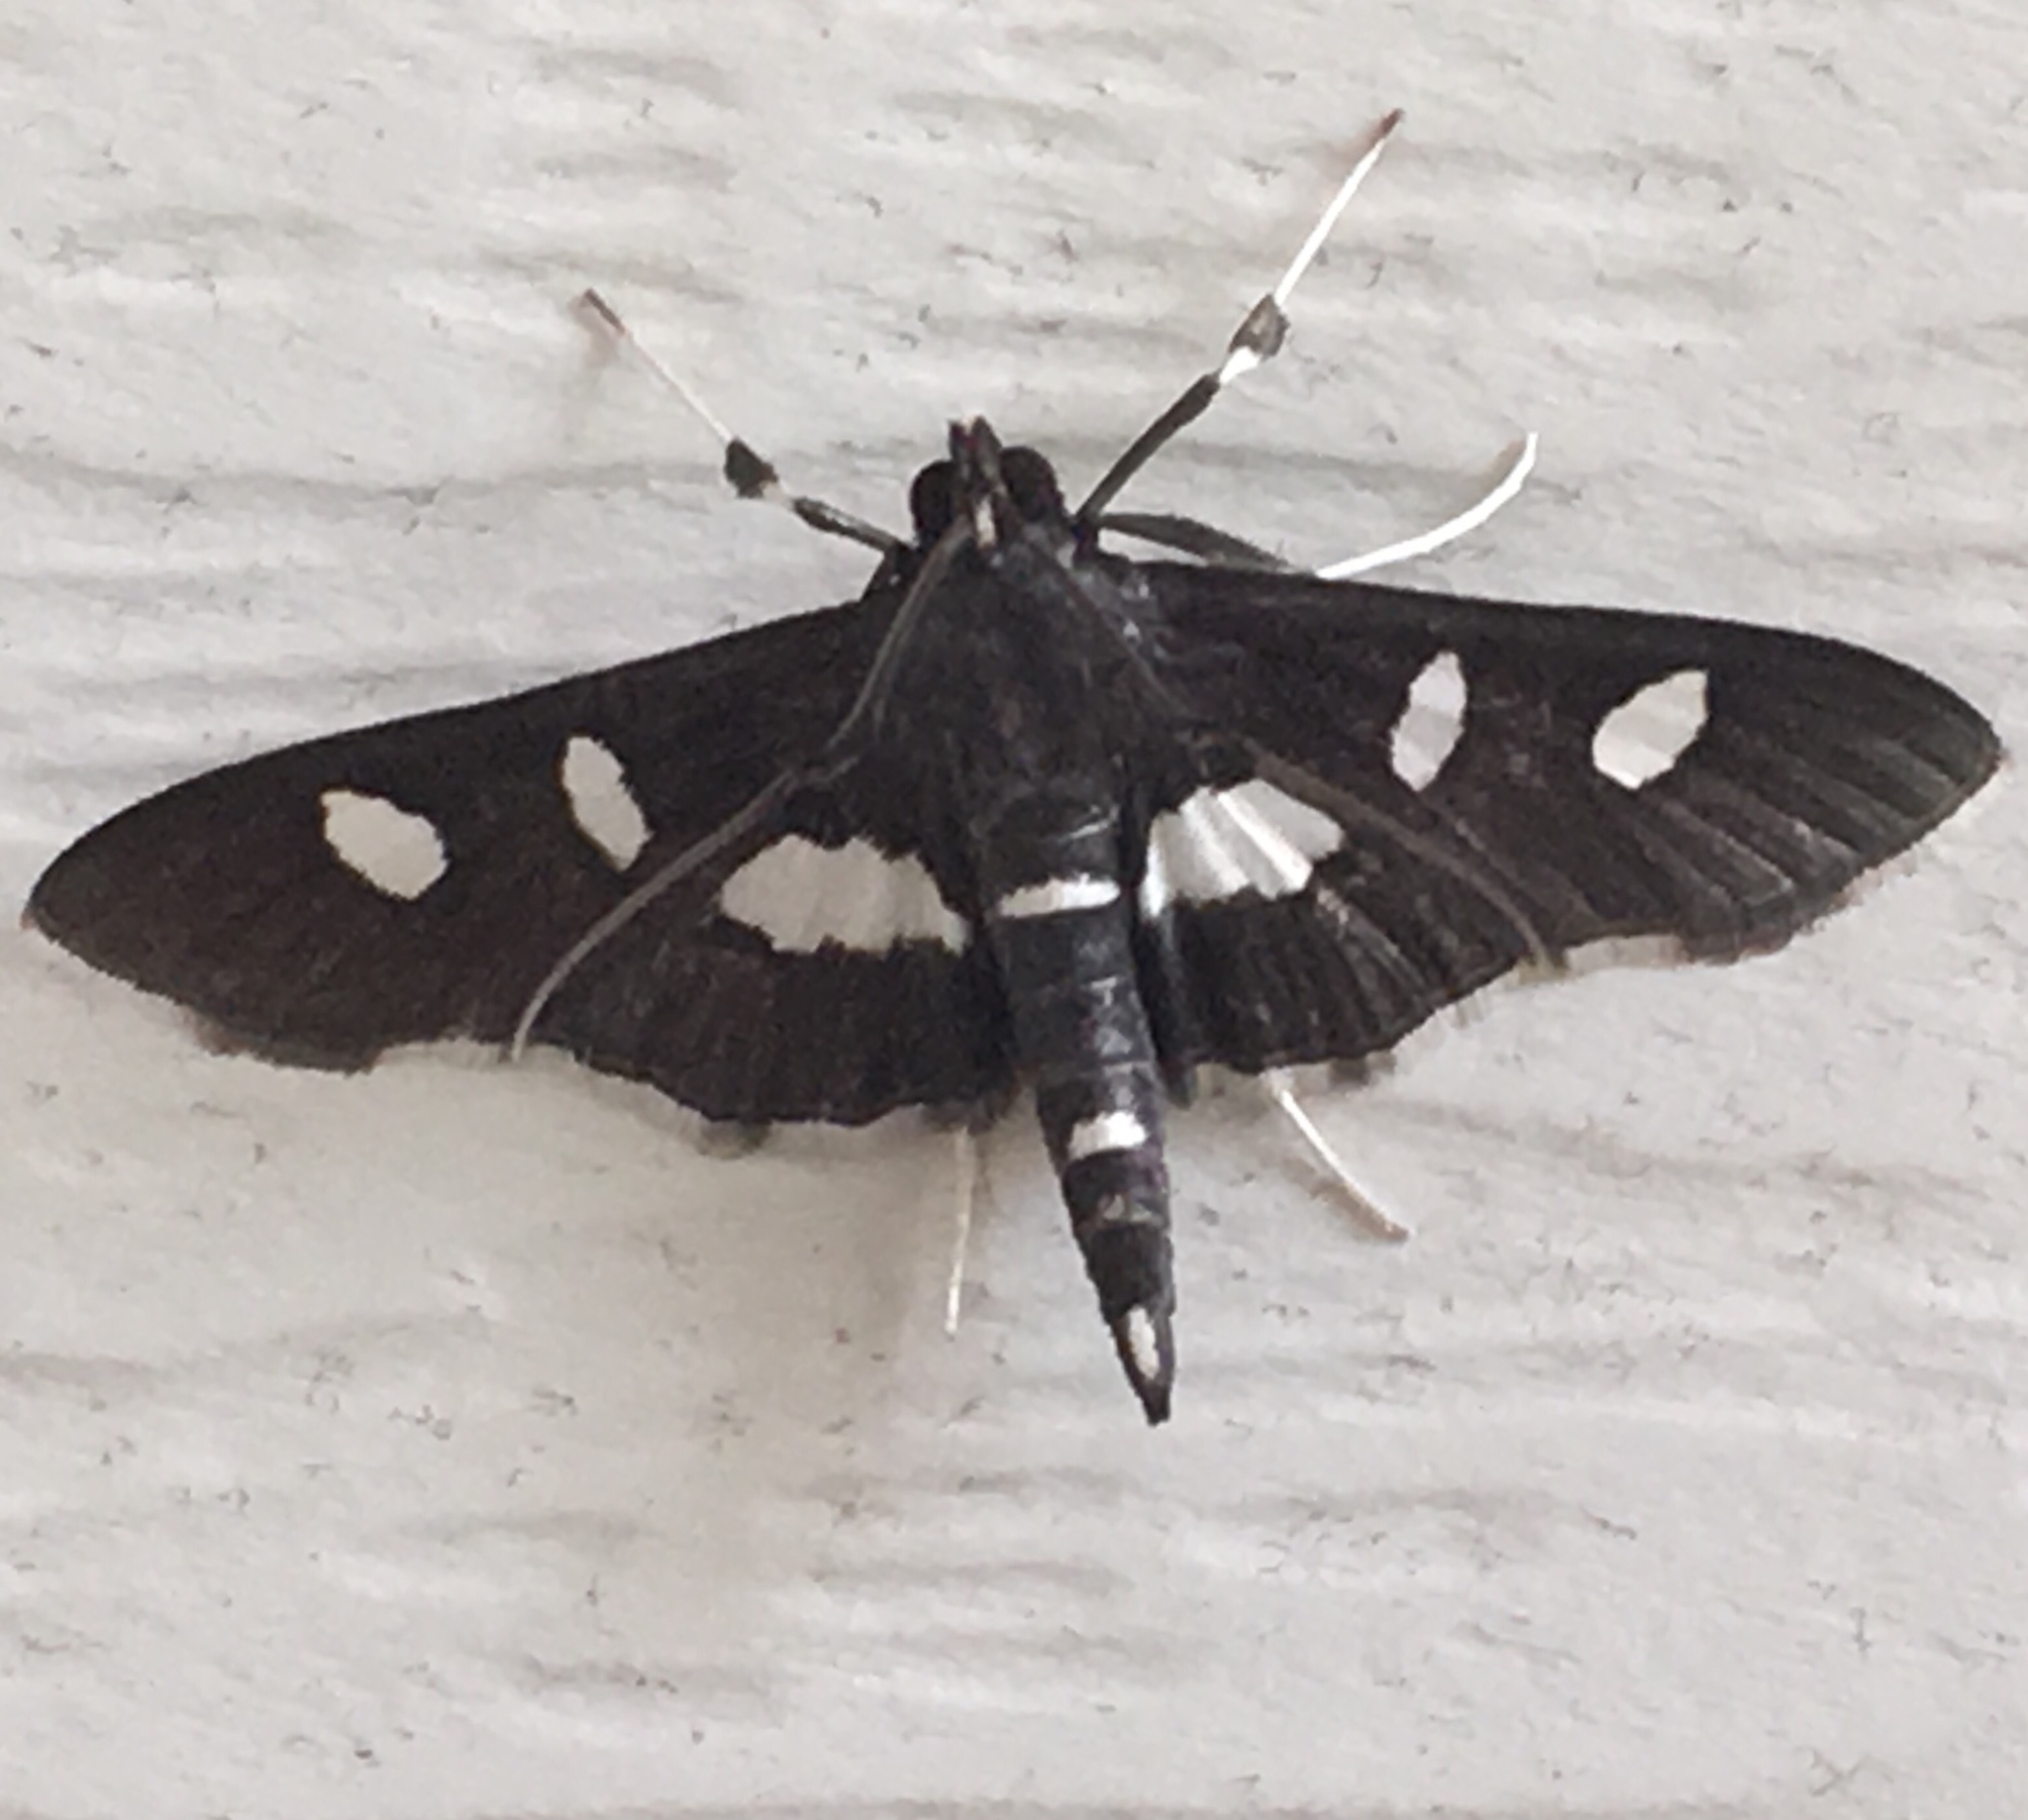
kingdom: Animalia
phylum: Arthropoda
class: Insecta
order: Lepidoptera
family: Crambidae
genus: Desmia
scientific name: Desmia
